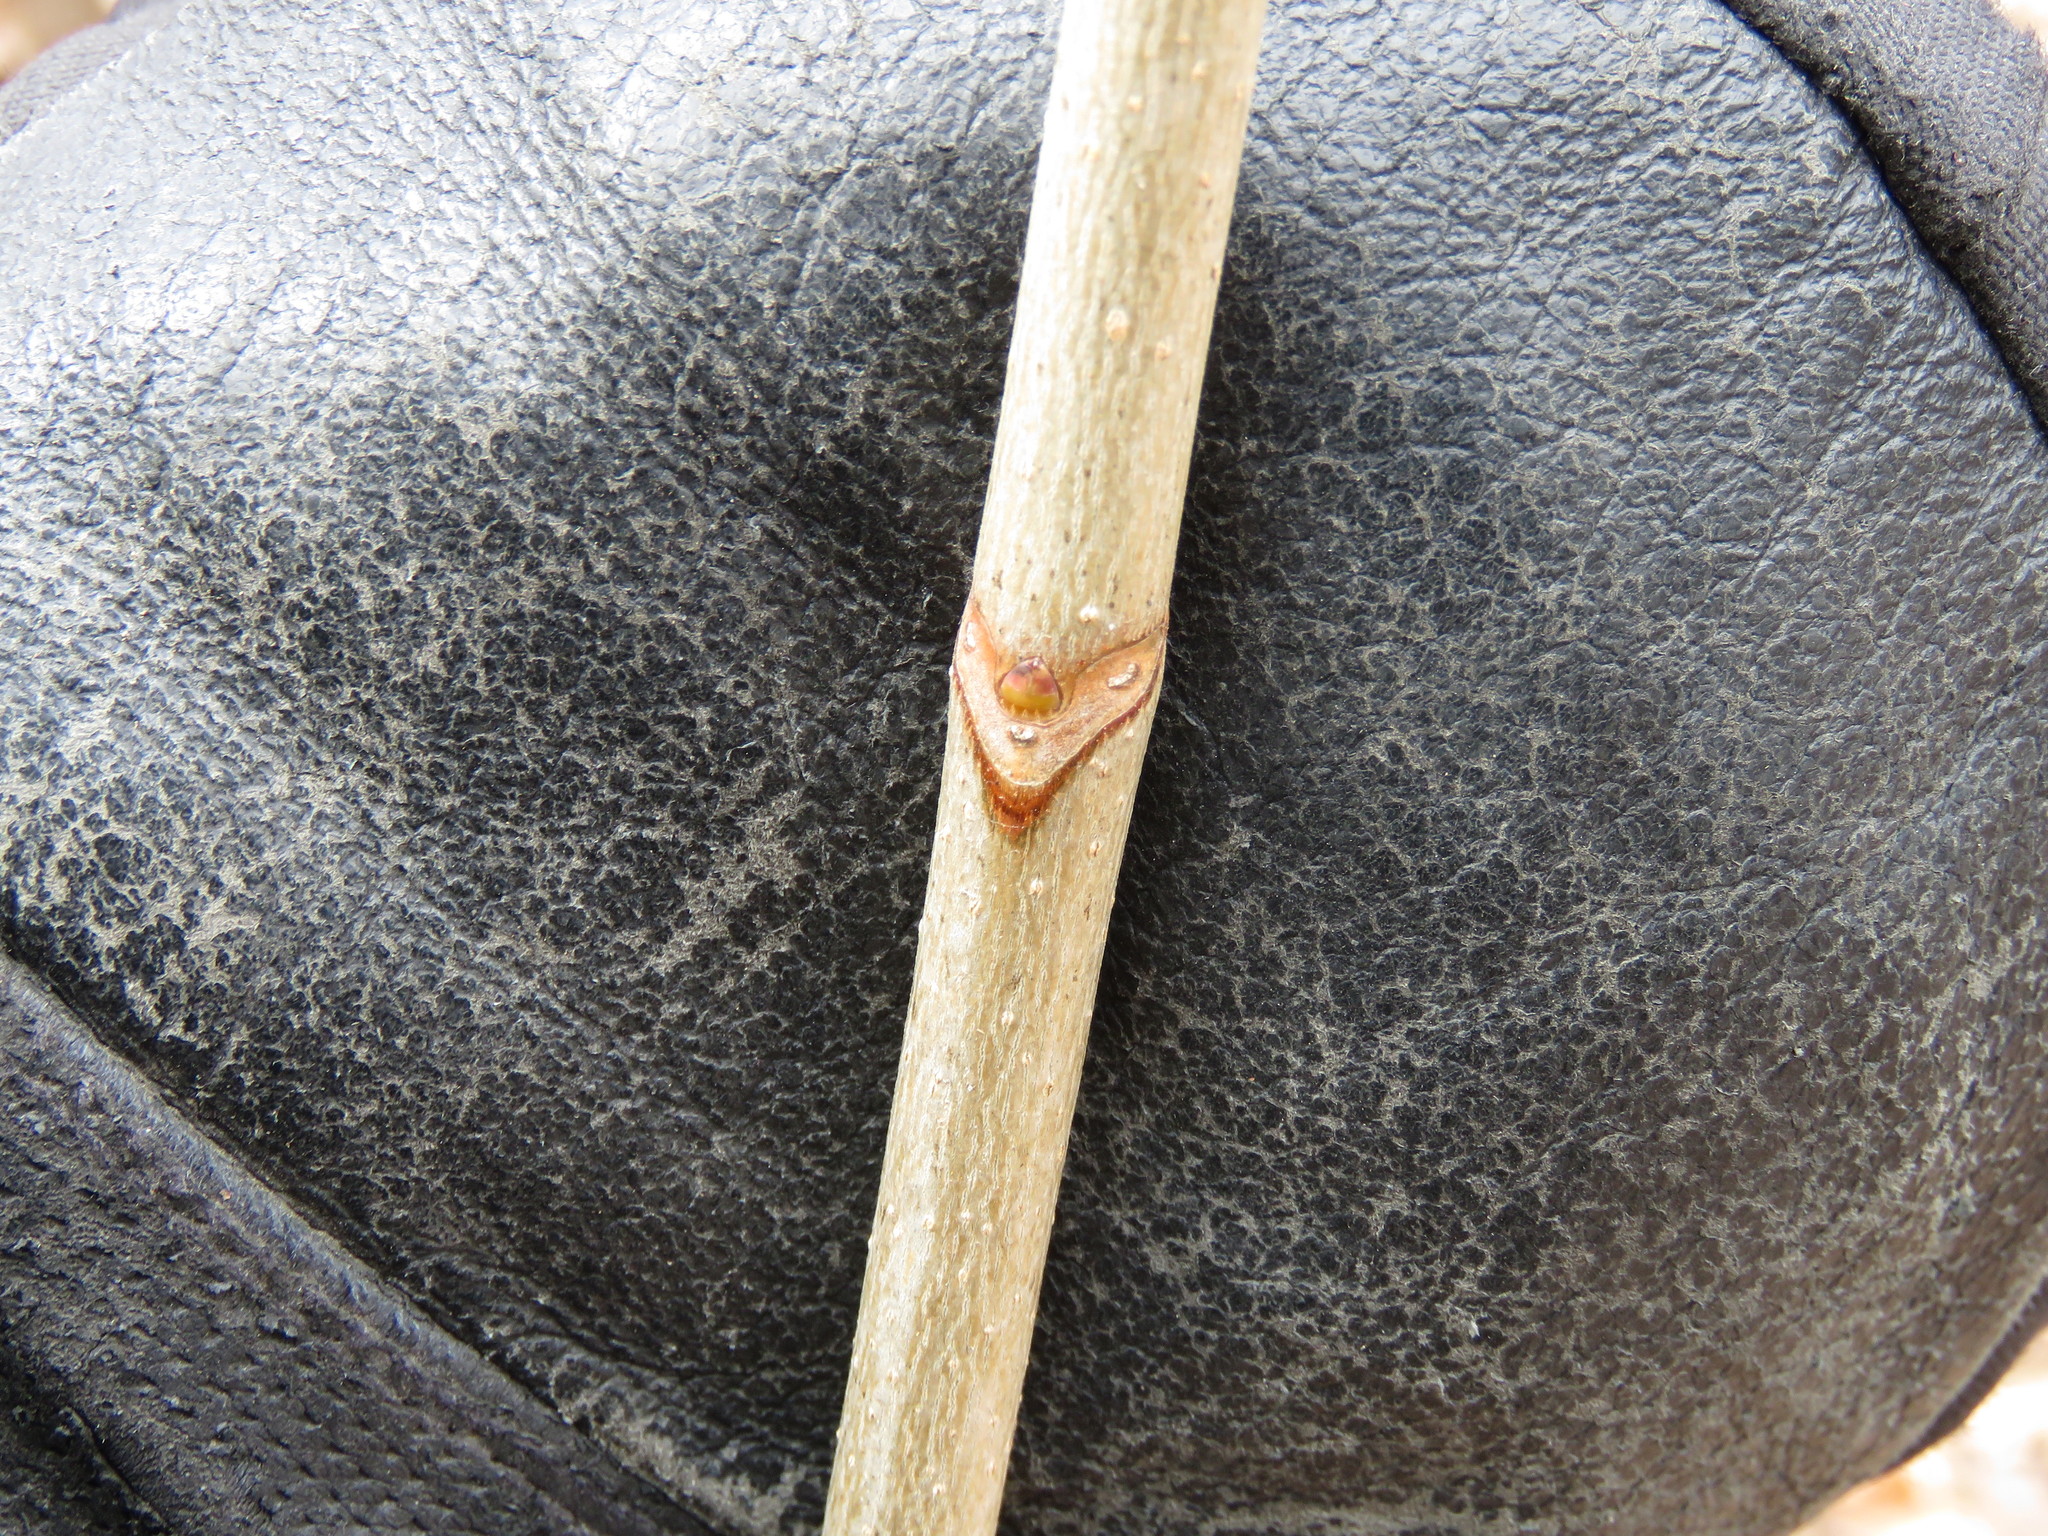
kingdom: Plantae
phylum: Tracheophyta
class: Magnoliopsida
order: Sapindales
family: Sapindaceae
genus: Acer
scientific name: Acer platanoides
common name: Norway maple
